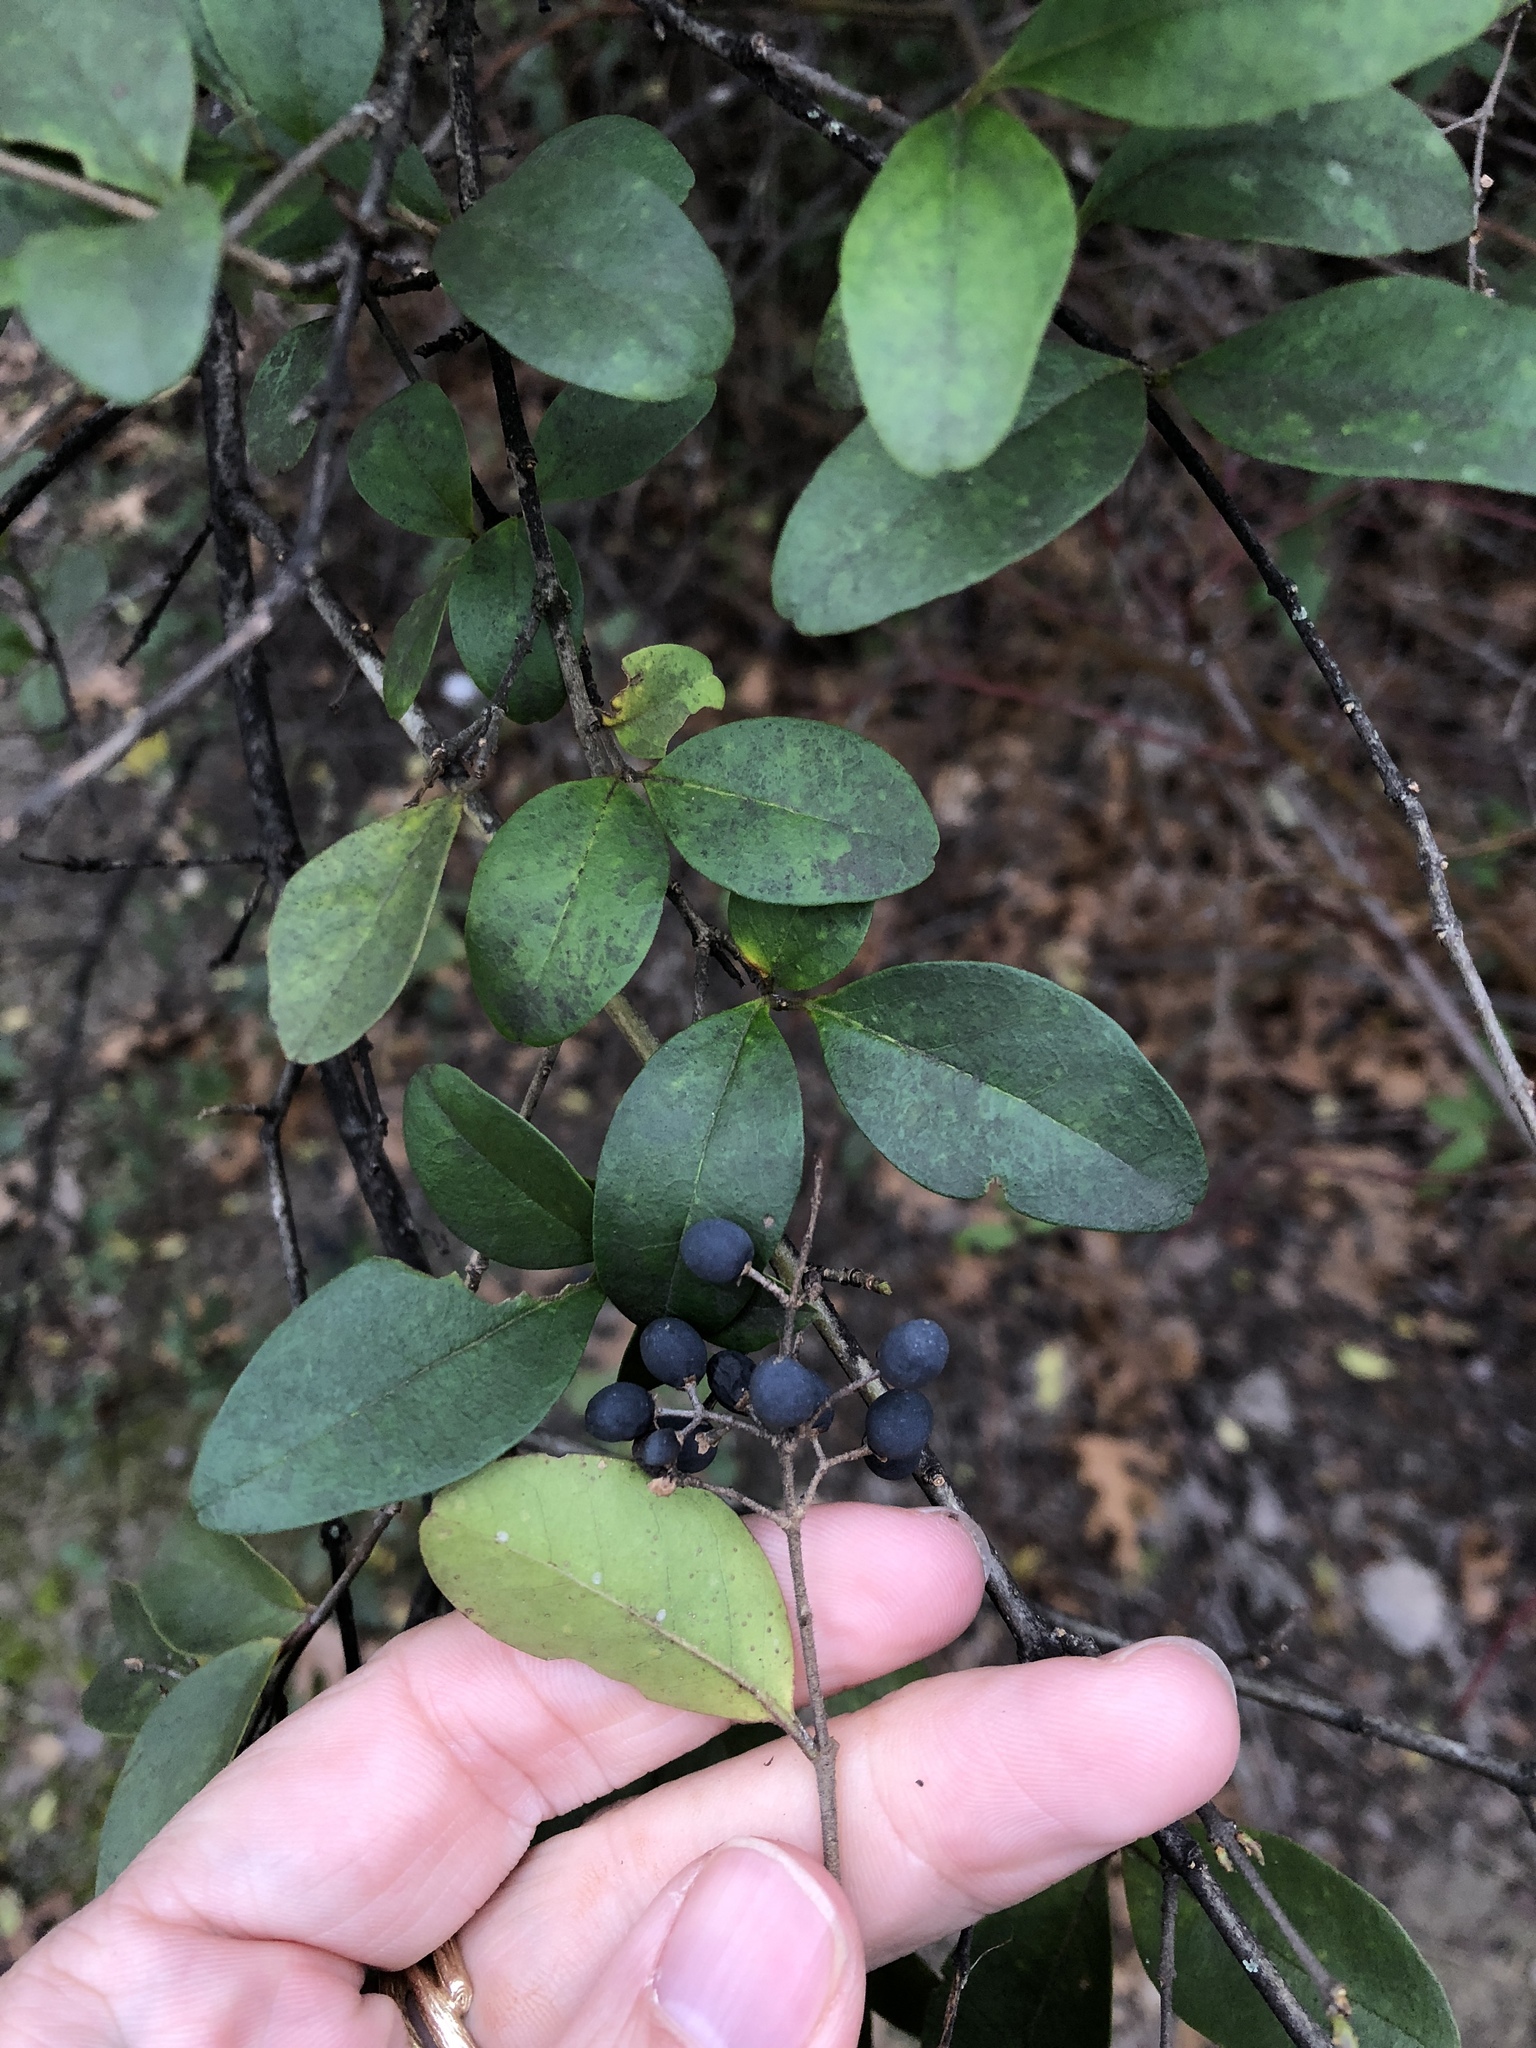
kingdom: Plantae
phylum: Tracheophyta
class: Magnoliopsida
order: Lamiales
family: Oleaceae
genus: Ligustrum
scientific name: Ligustrum sinense
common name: Chinese privet
